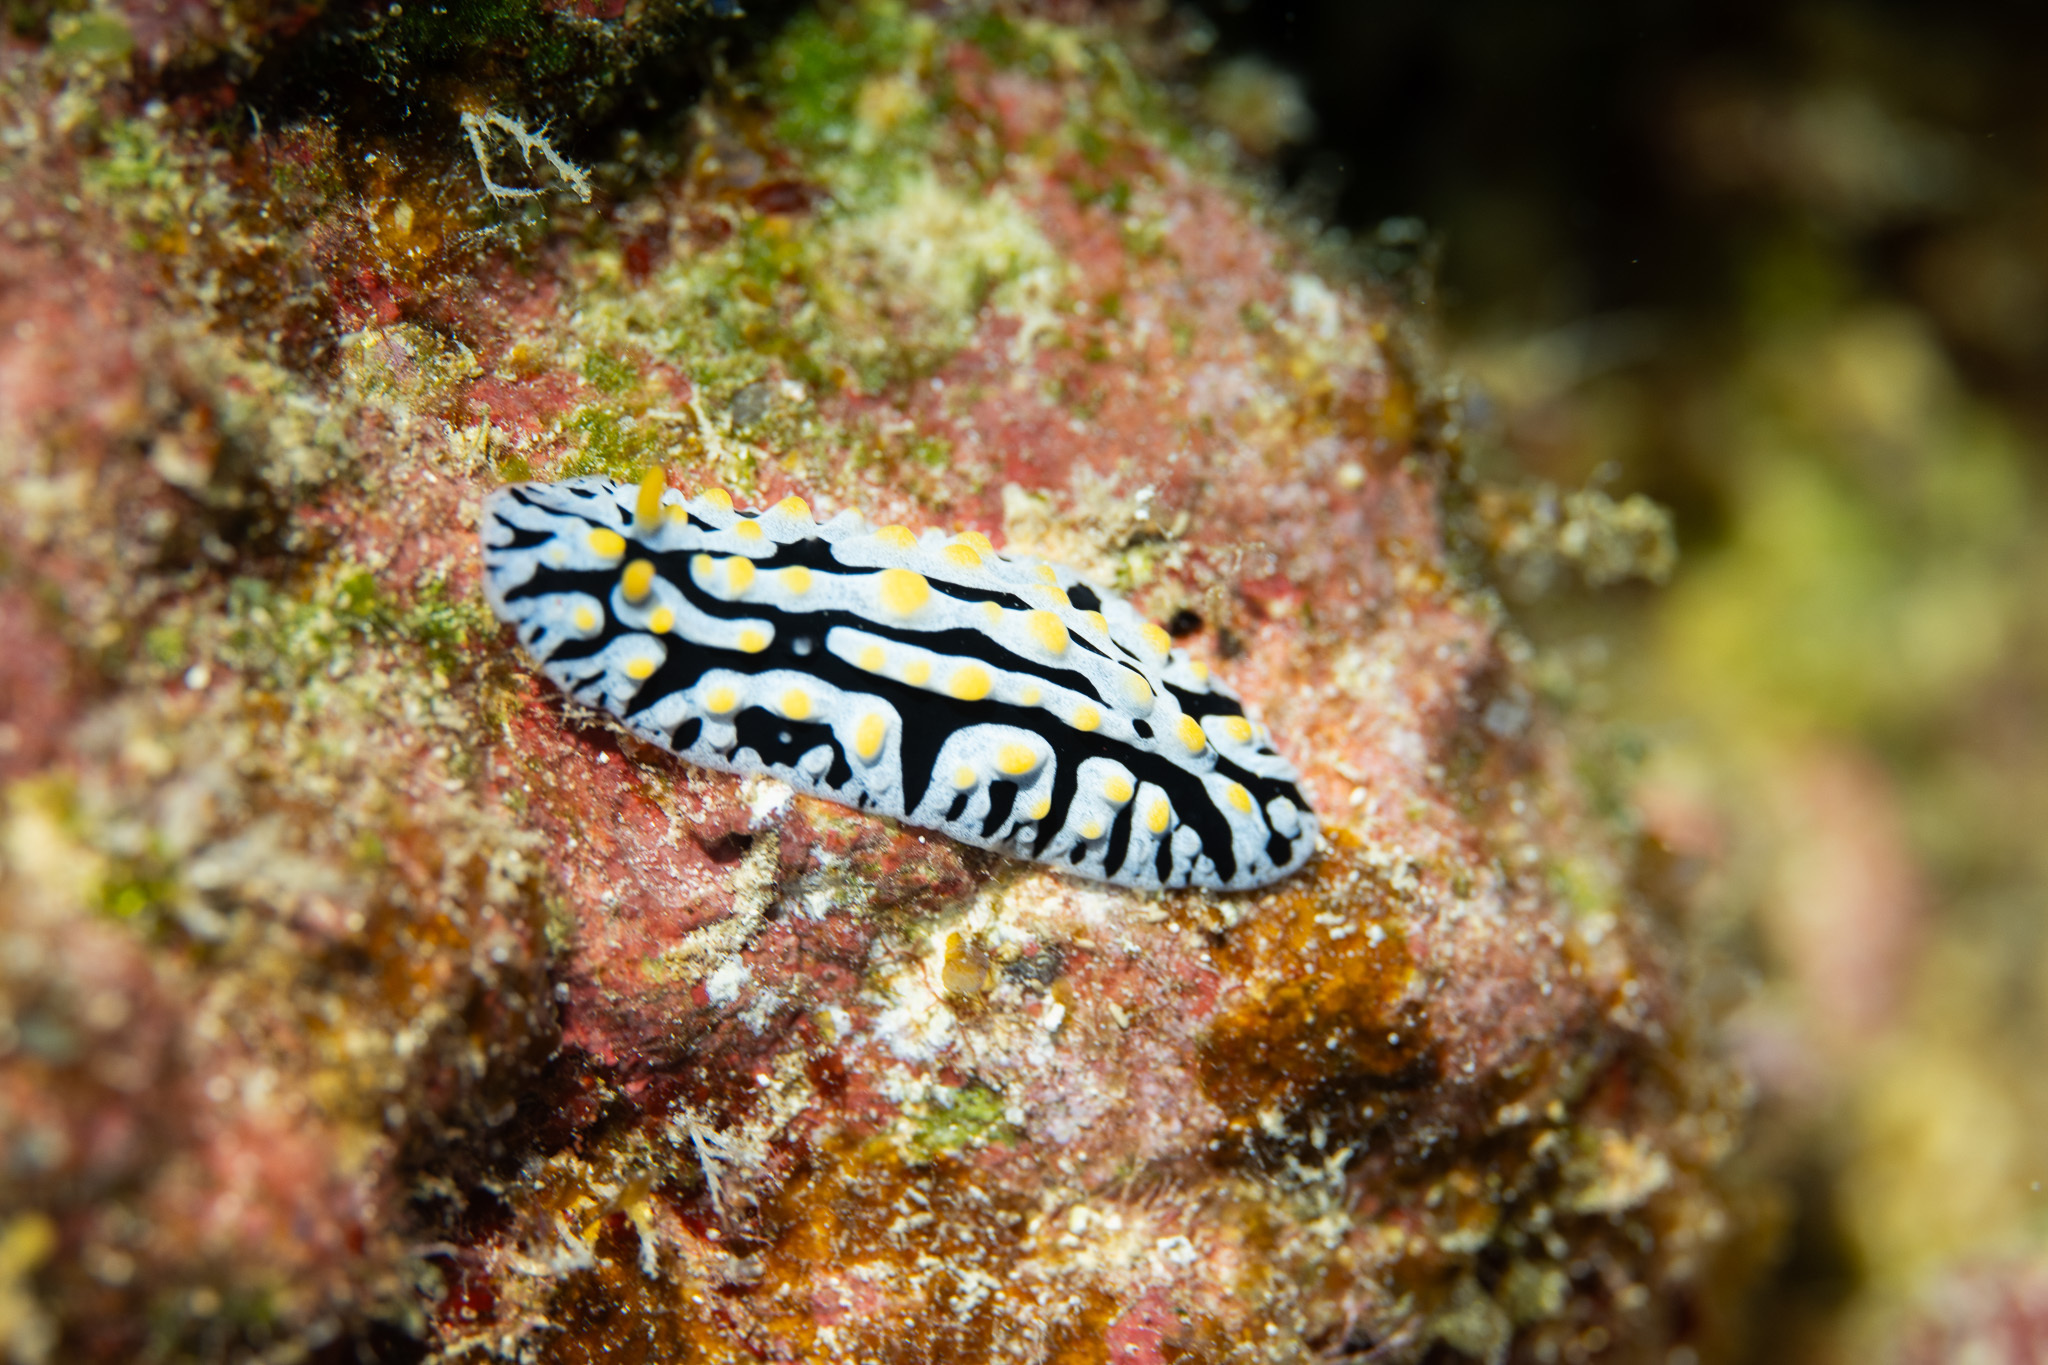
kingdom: Animalia
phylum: Mollusca
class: Gastropoda
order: Nudibranchia
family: Phyllidiidae
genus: Phyllidia
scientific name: Phyllidia varicosa
